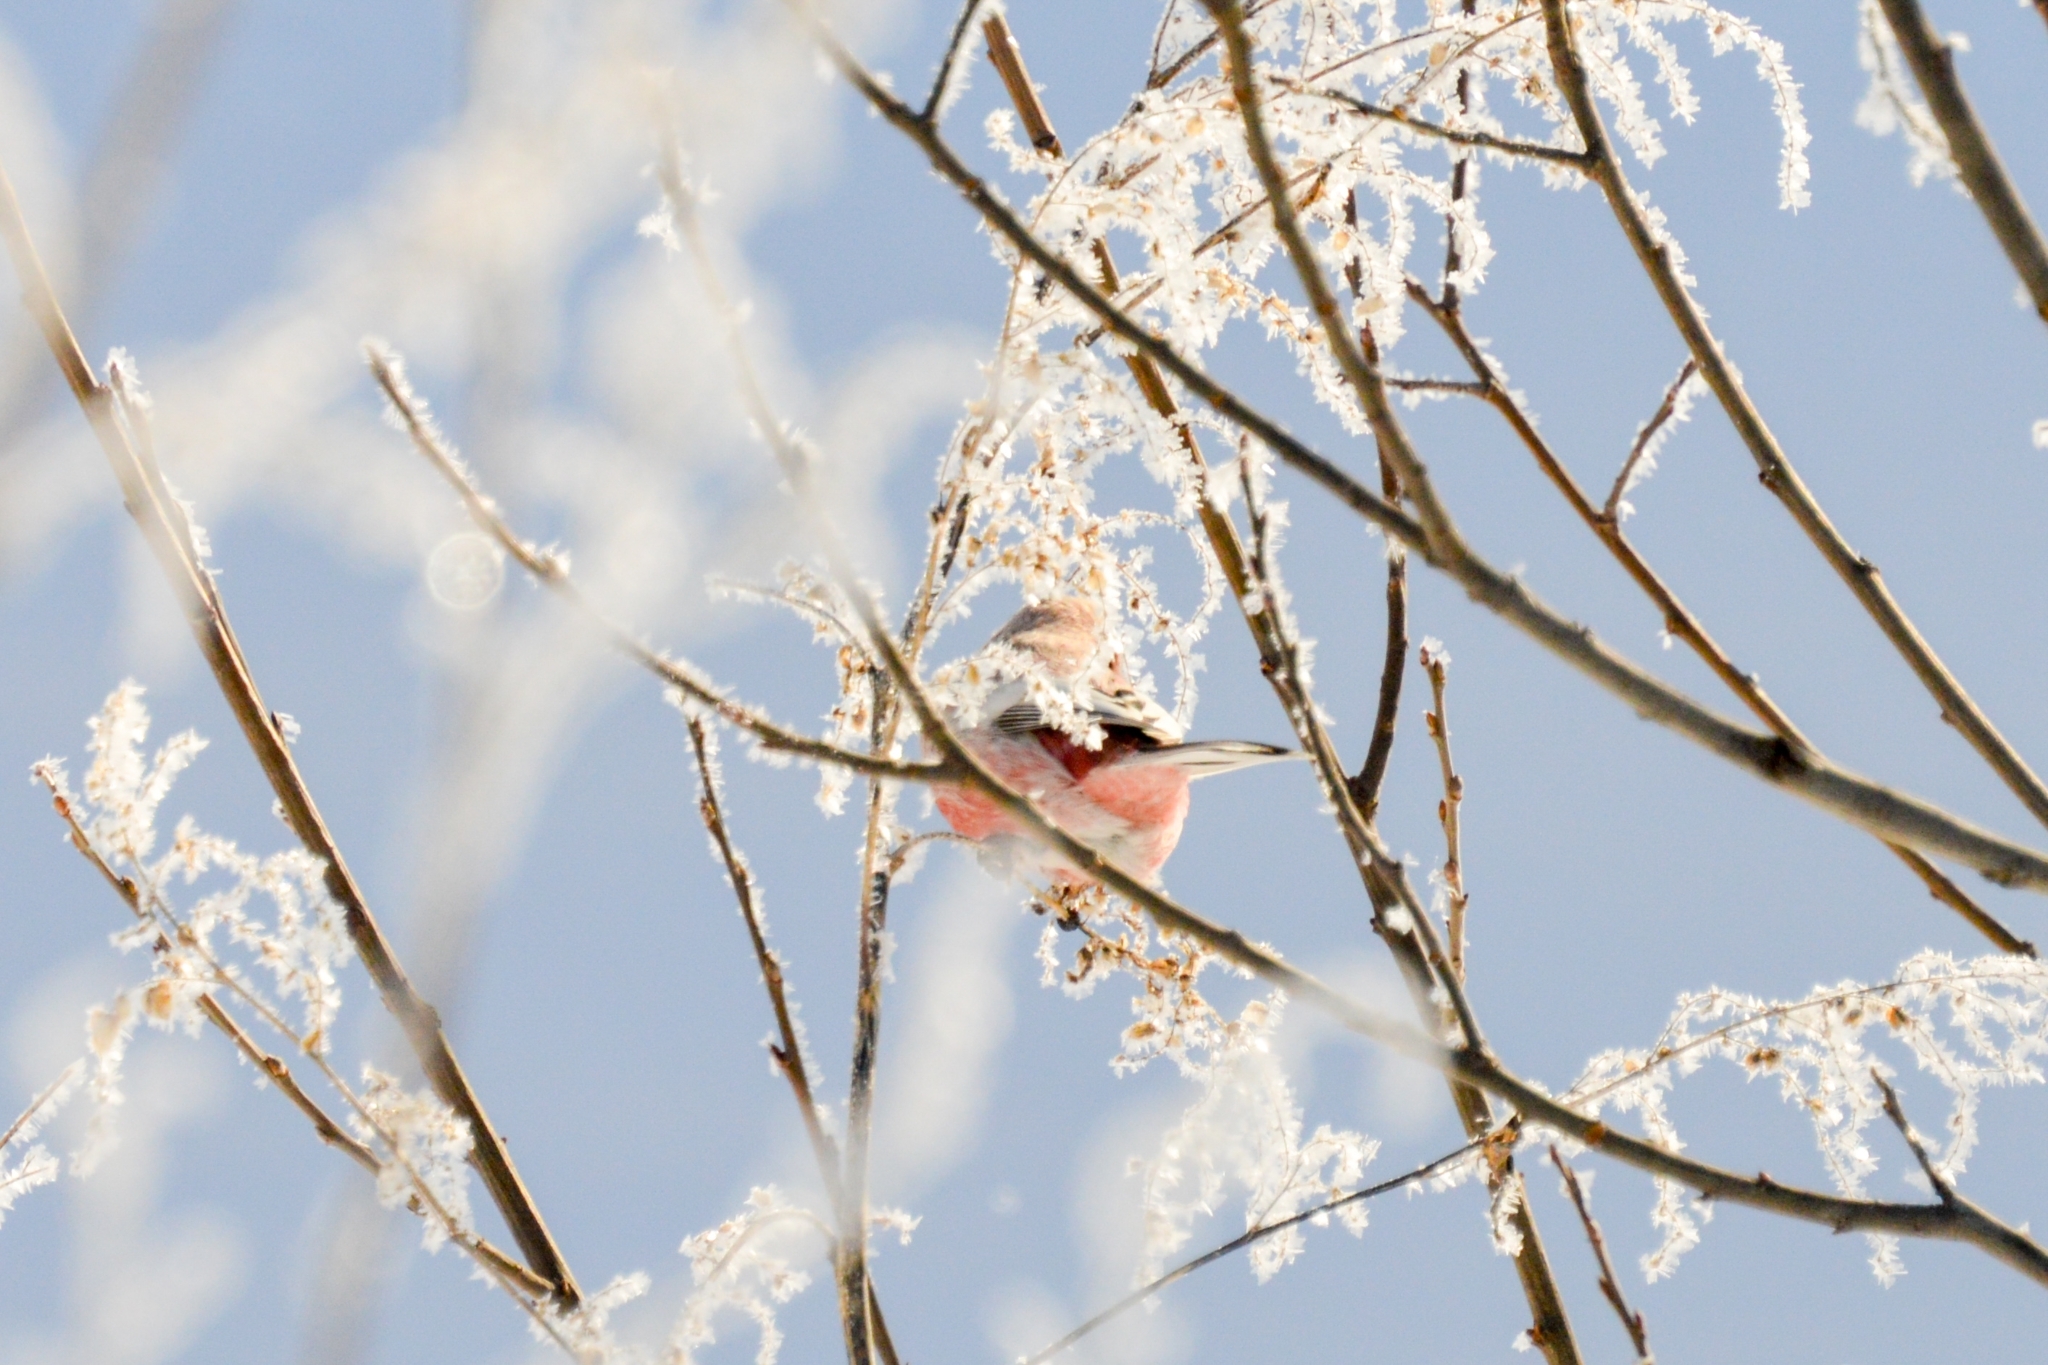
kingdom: Animalia
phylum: Chordata
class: Aves
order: Passeriformes
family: Fringillidae
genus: Carpodacus
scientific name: Carpodacus sibiricus
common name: Long-tailed rosefinch
